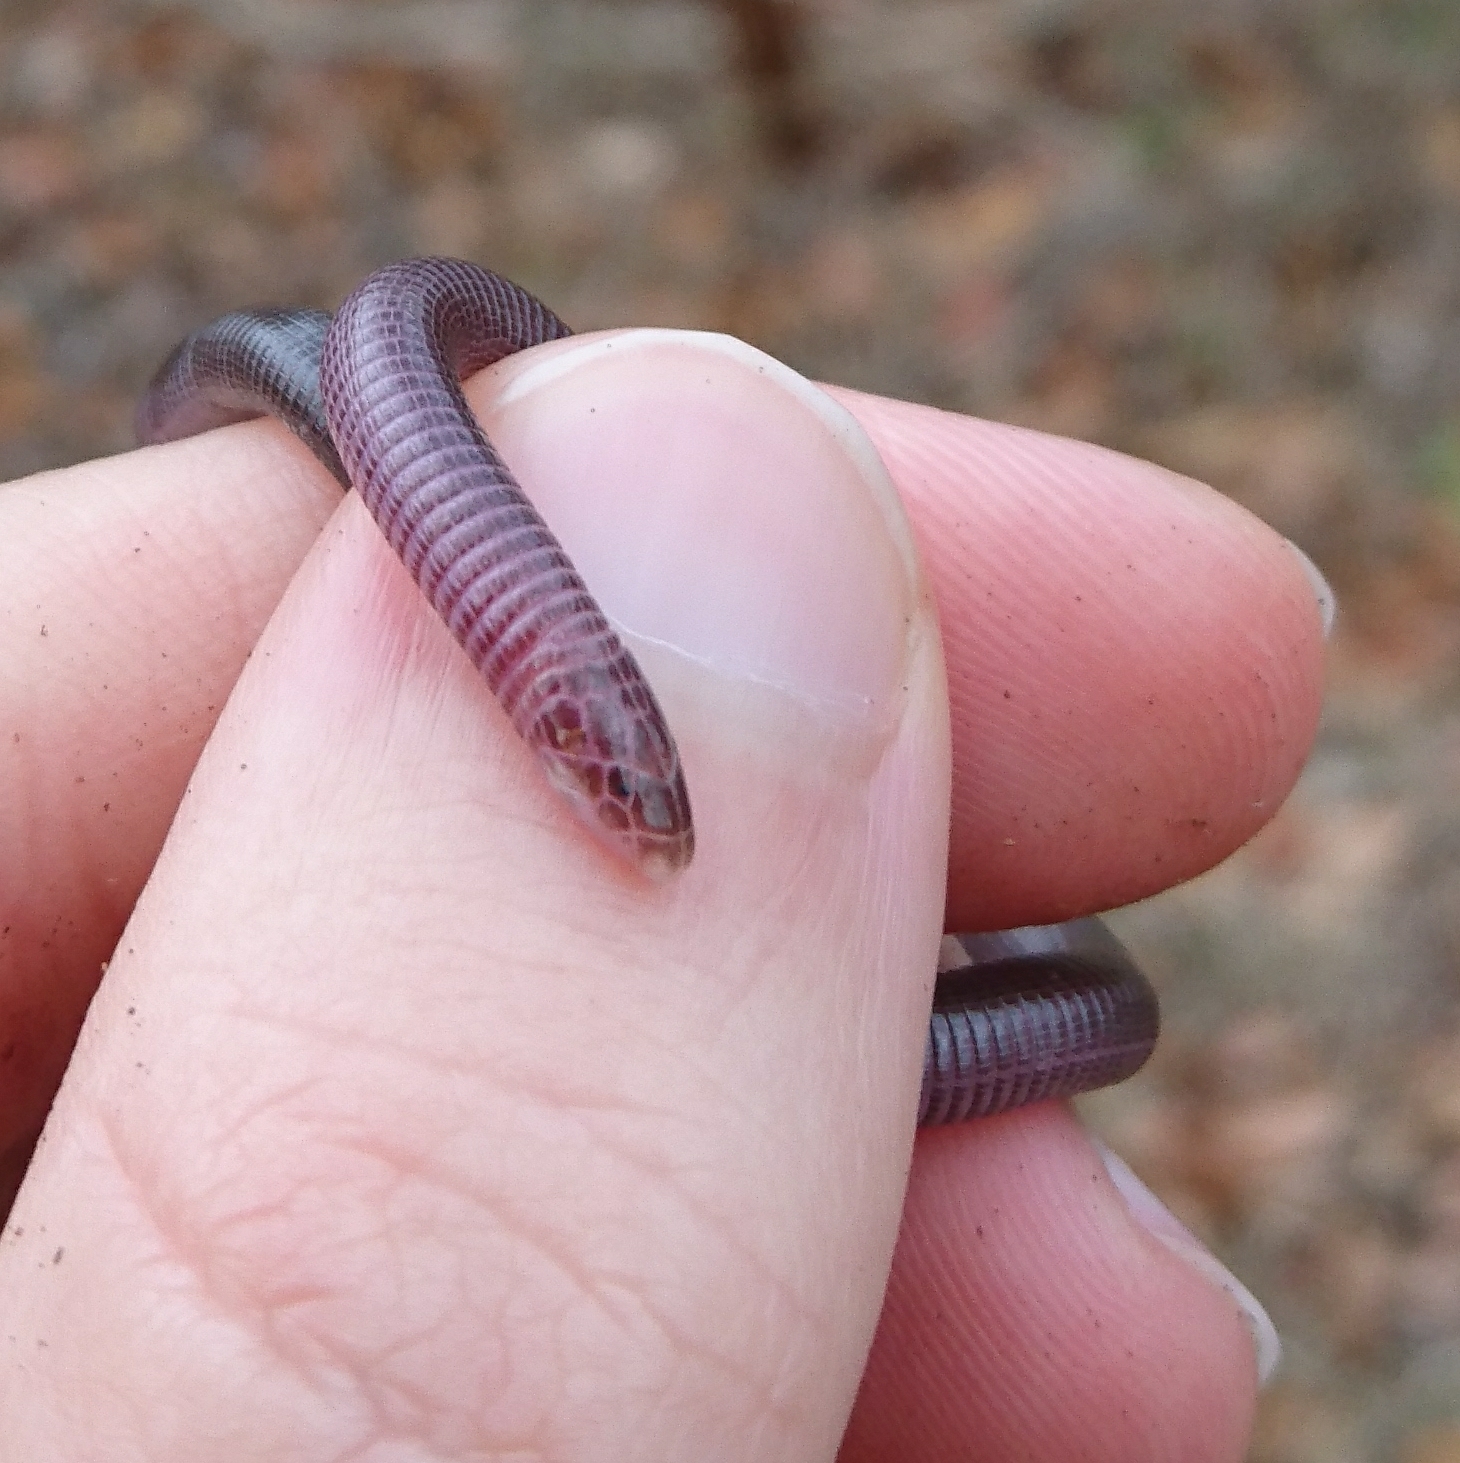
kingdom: Animalia
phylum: Chordata
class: Squamata
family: Amphisbaenidae
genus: Zygaspis
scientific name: Zygaspis arenicola
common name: Sand-dwelling dwarf worm lizard
